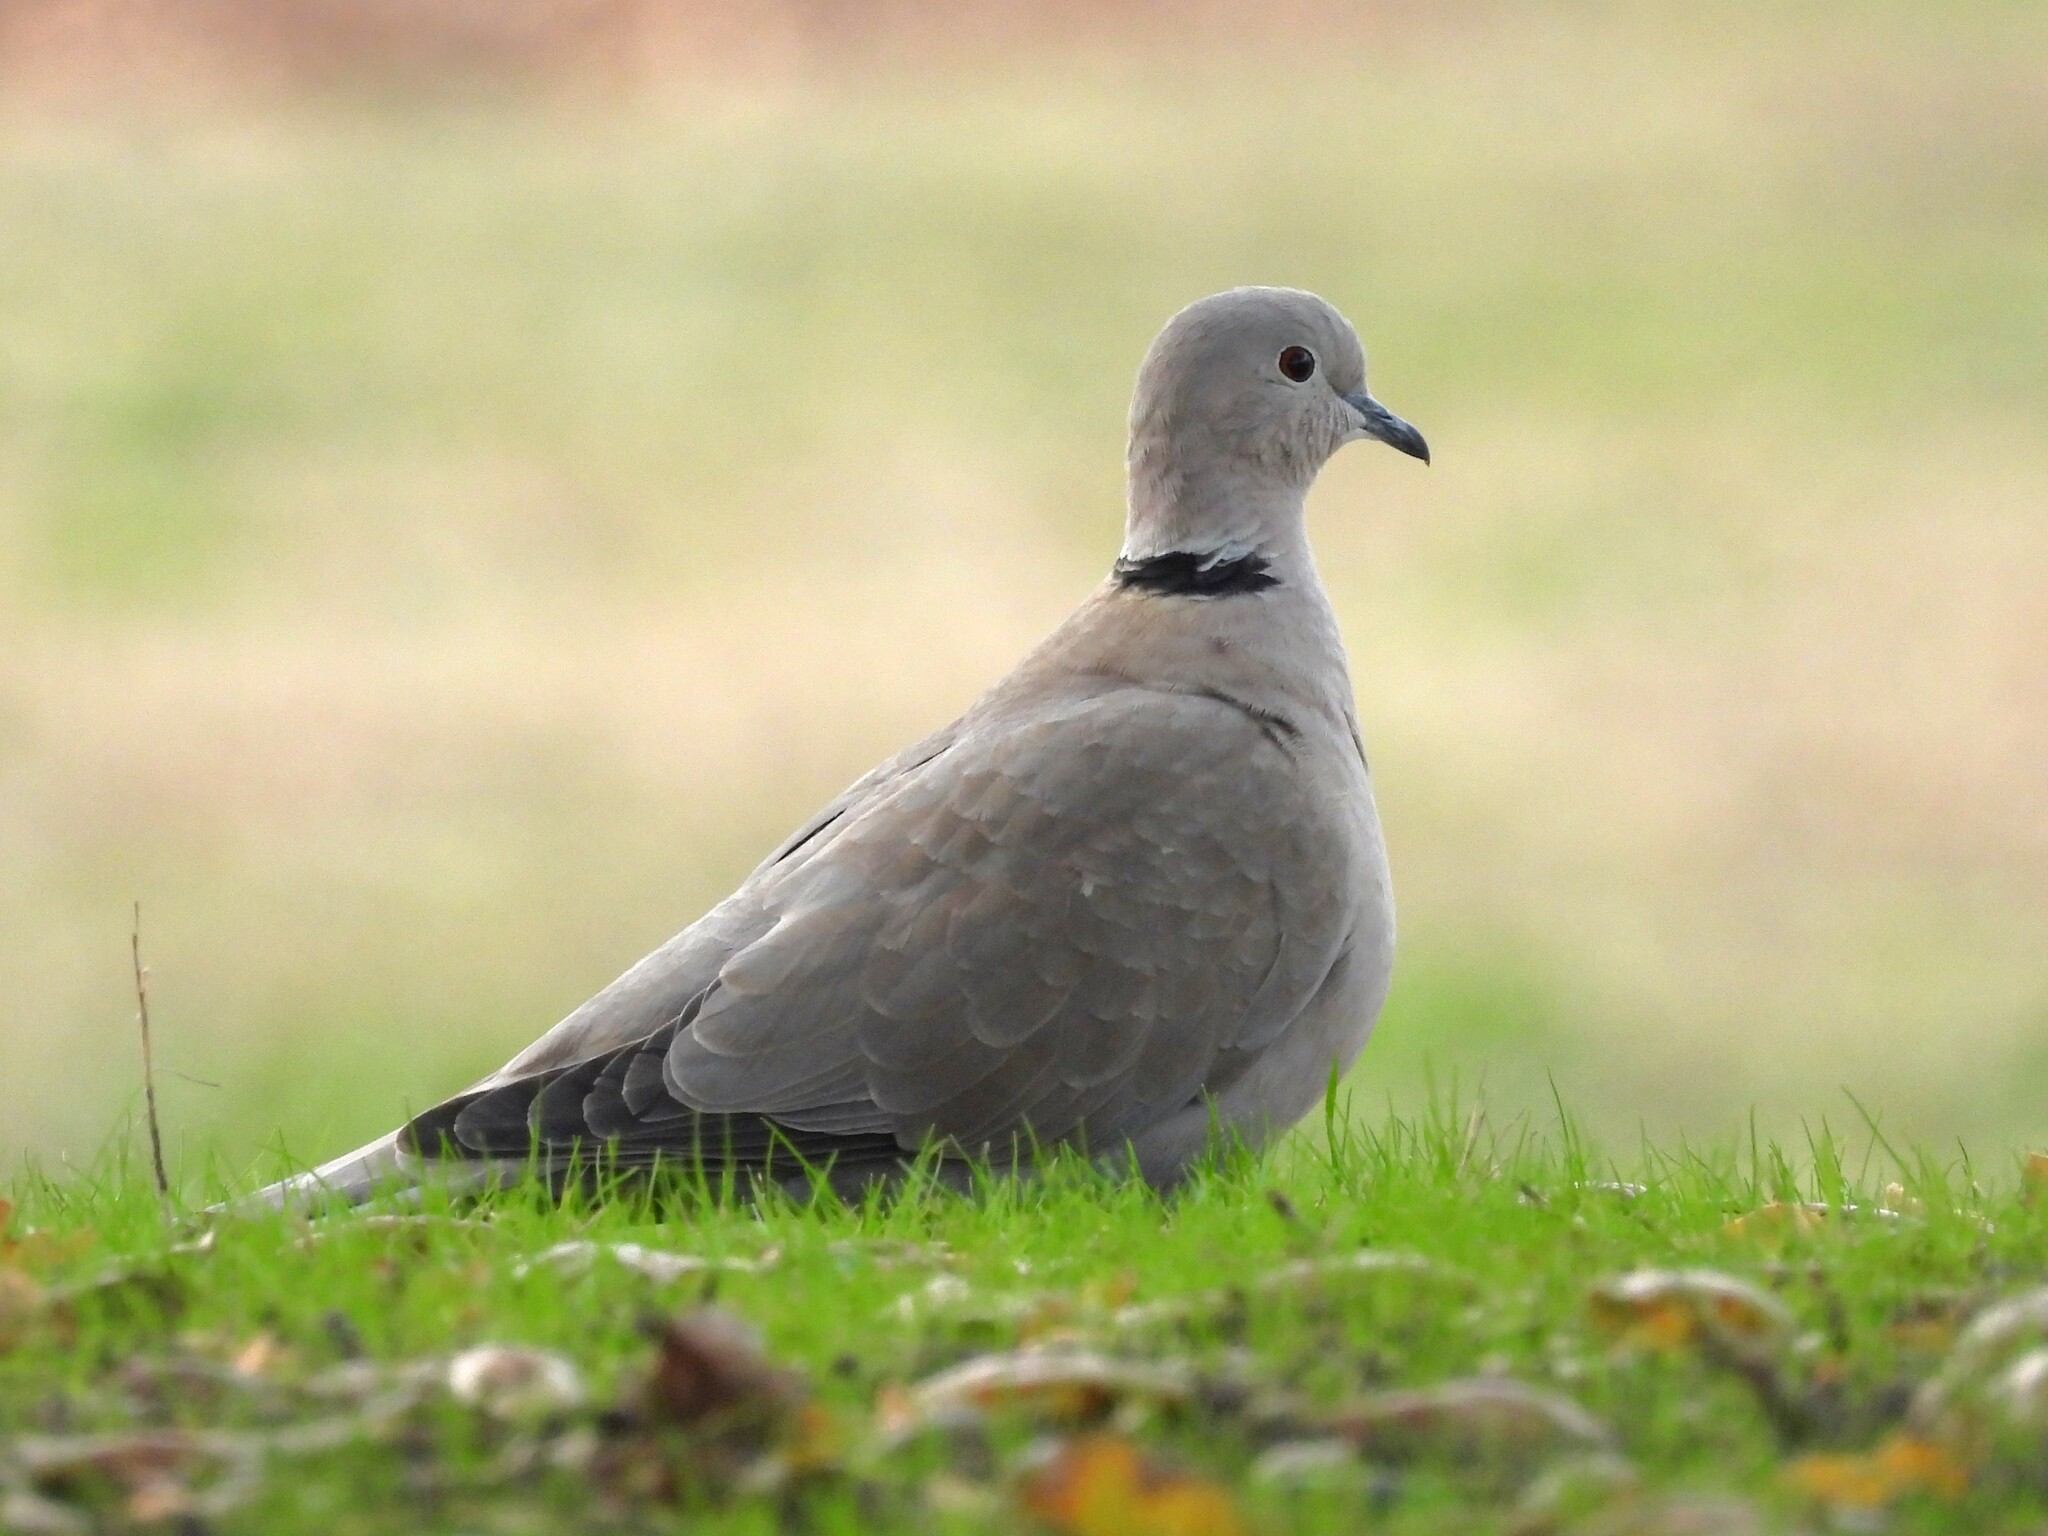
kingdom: Animalia
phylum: Chordata
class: Aves
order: Columbiformes
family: Columbidae
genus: Streptopelia
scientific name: Streptopelia decaocto
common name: Eurasian collared dove
